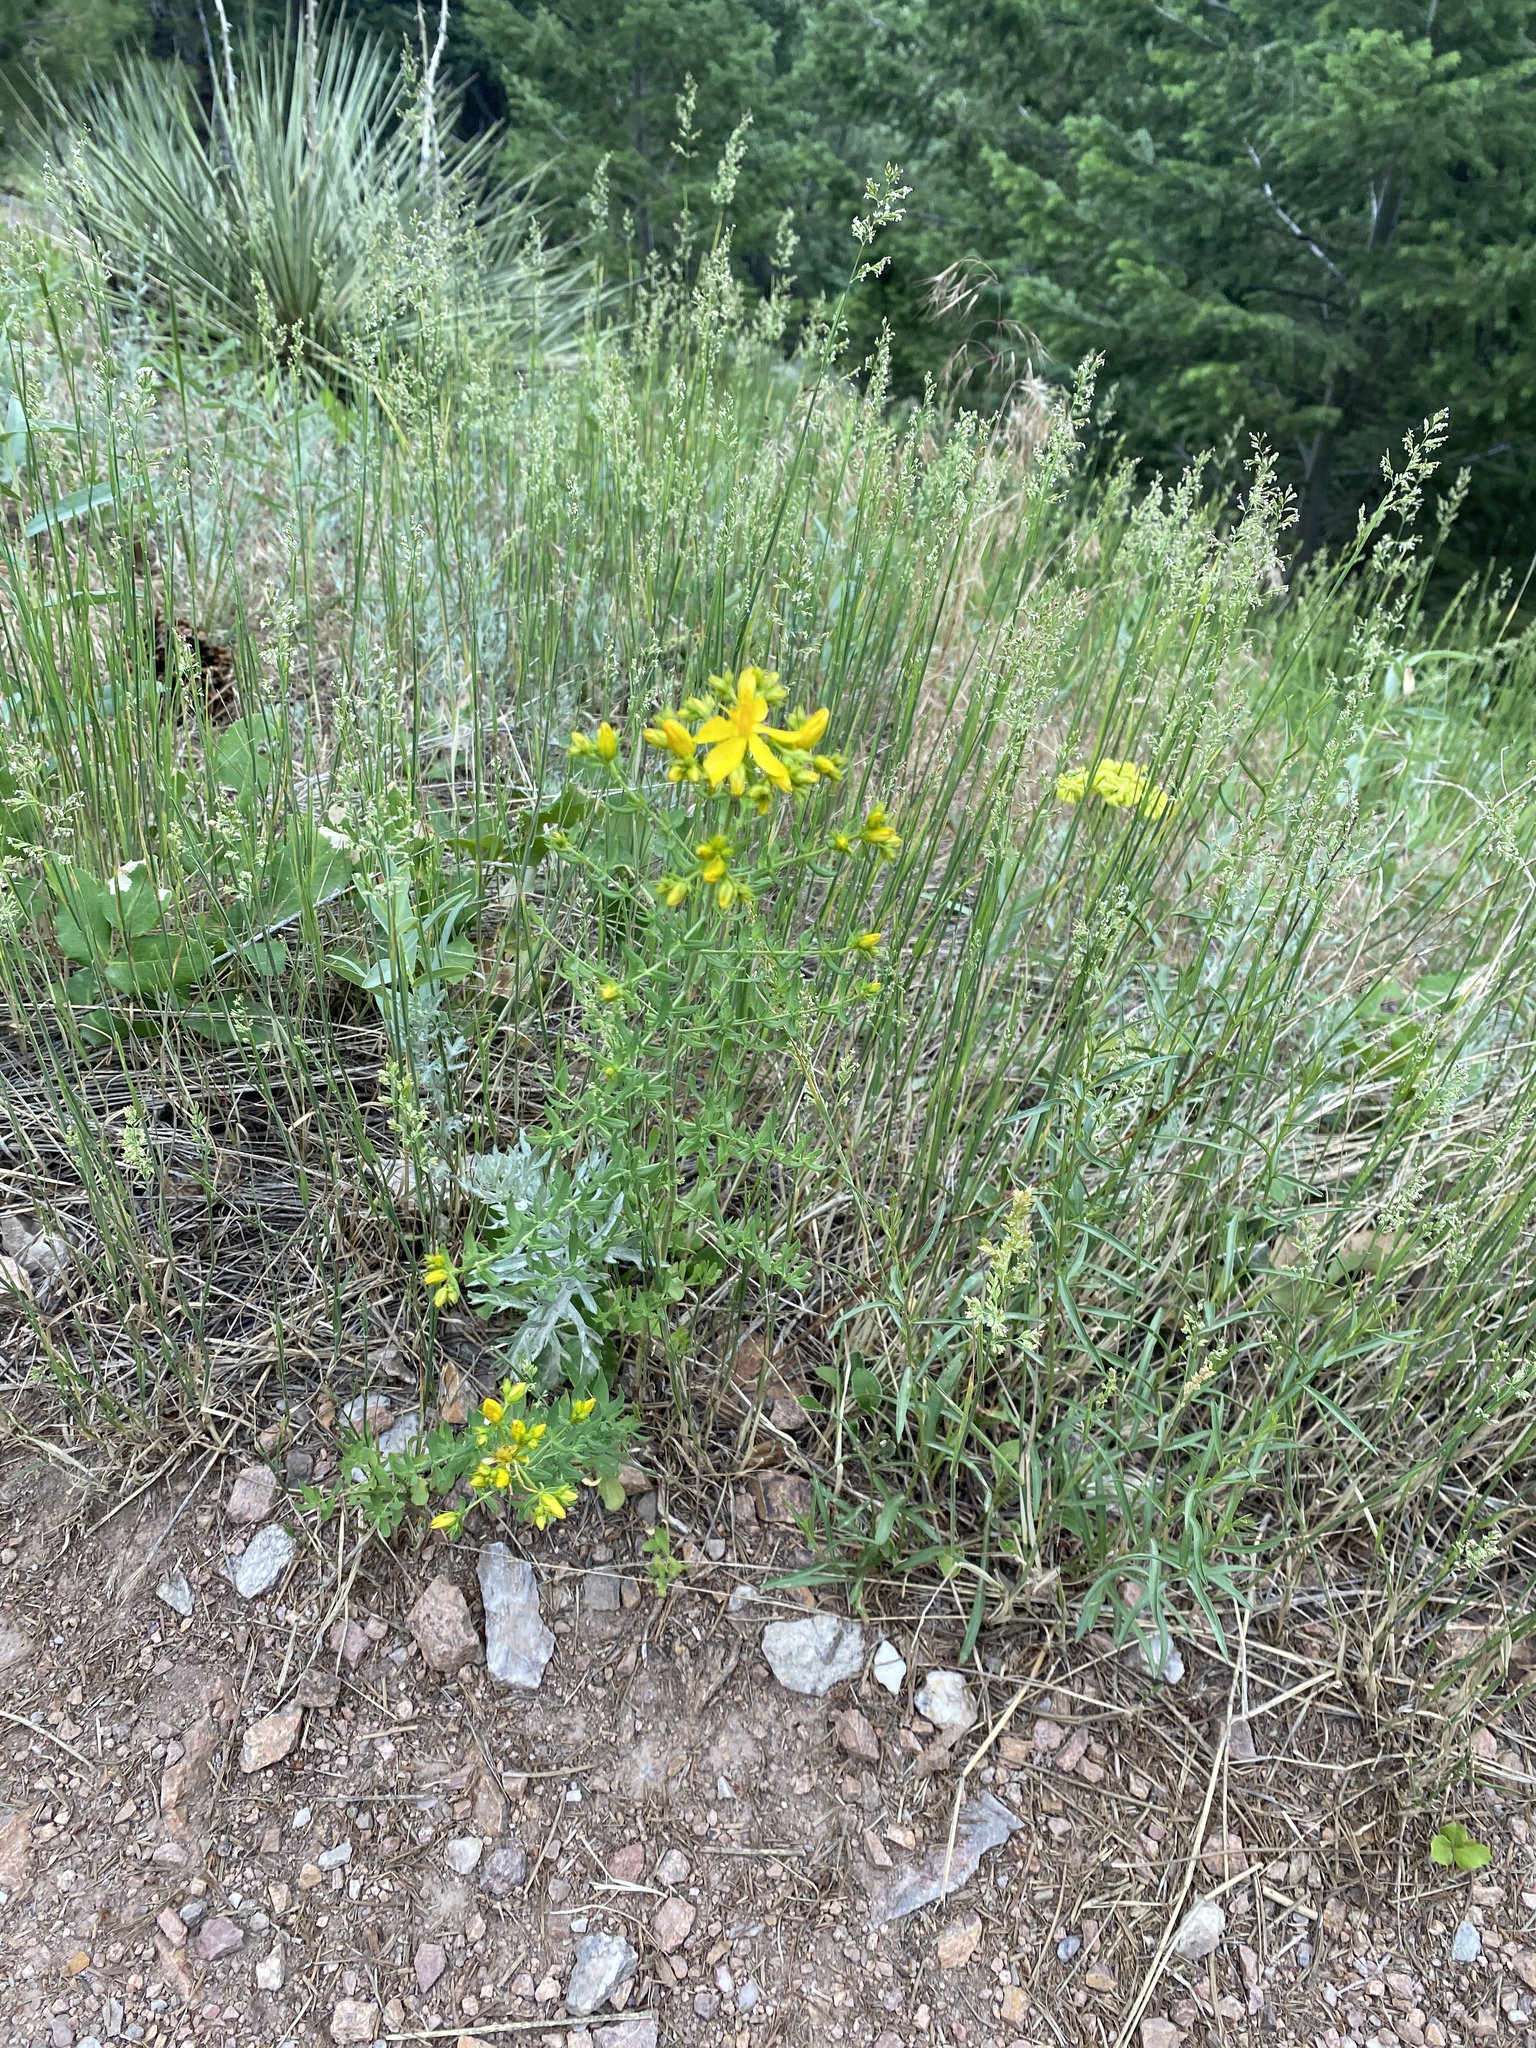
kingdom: Plantae
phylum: Tracheophyta
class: Magnoliopsida
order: Malpighiales
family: Hypericaceae
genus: Hypericum
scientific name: Hypericum perforatum
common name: Common st. johnswort
